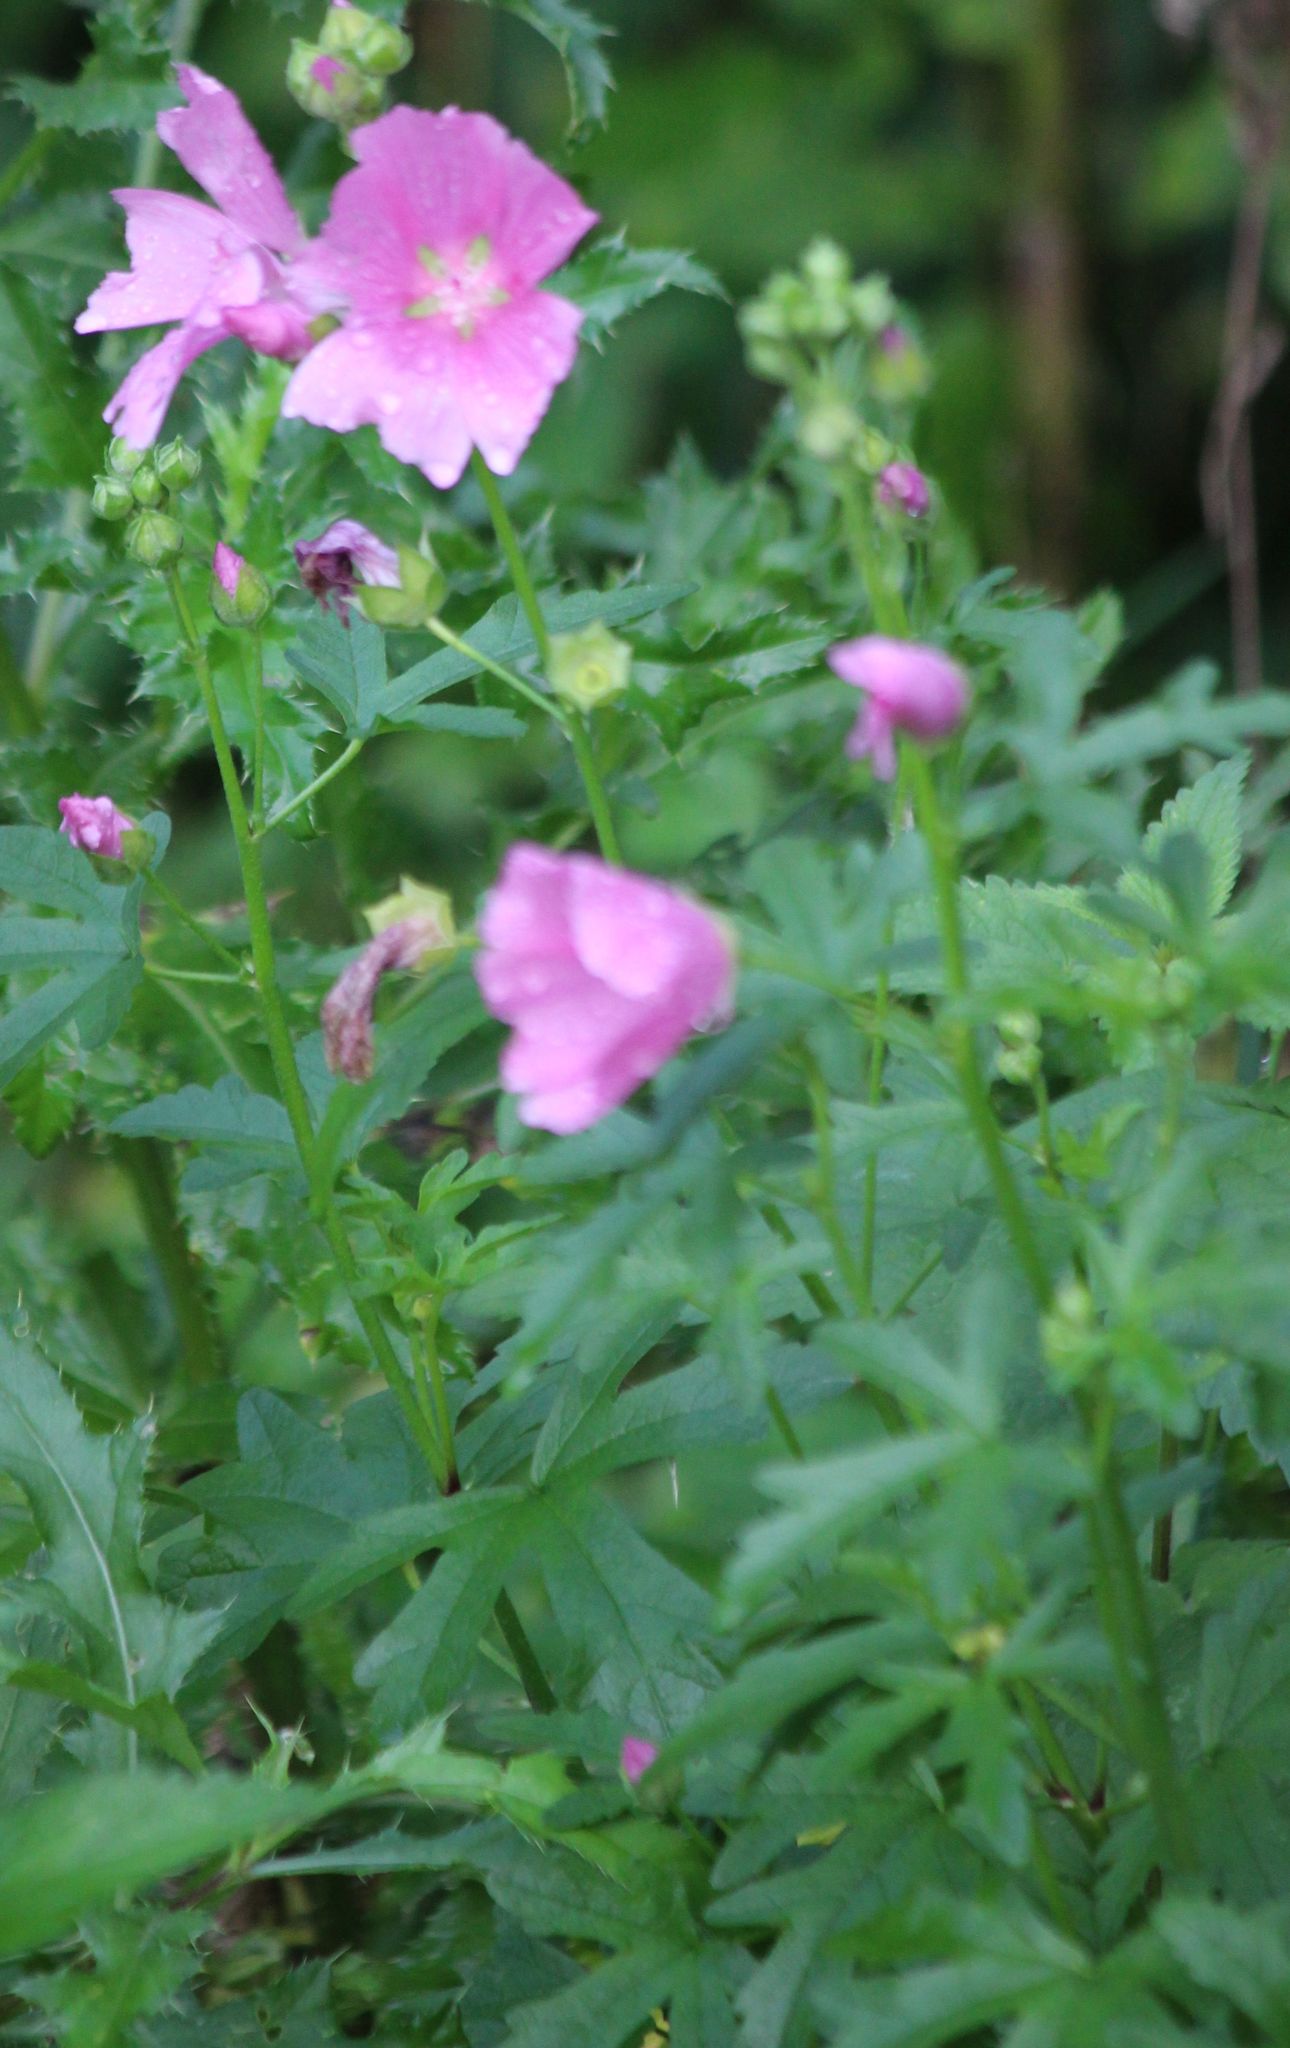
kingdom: Plantae
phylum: Tracheophyta
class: Magnoliopsida
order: Malvales
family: Malvaceae
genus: Malva
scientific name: Malva alcea
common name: Greater musk-mallow
